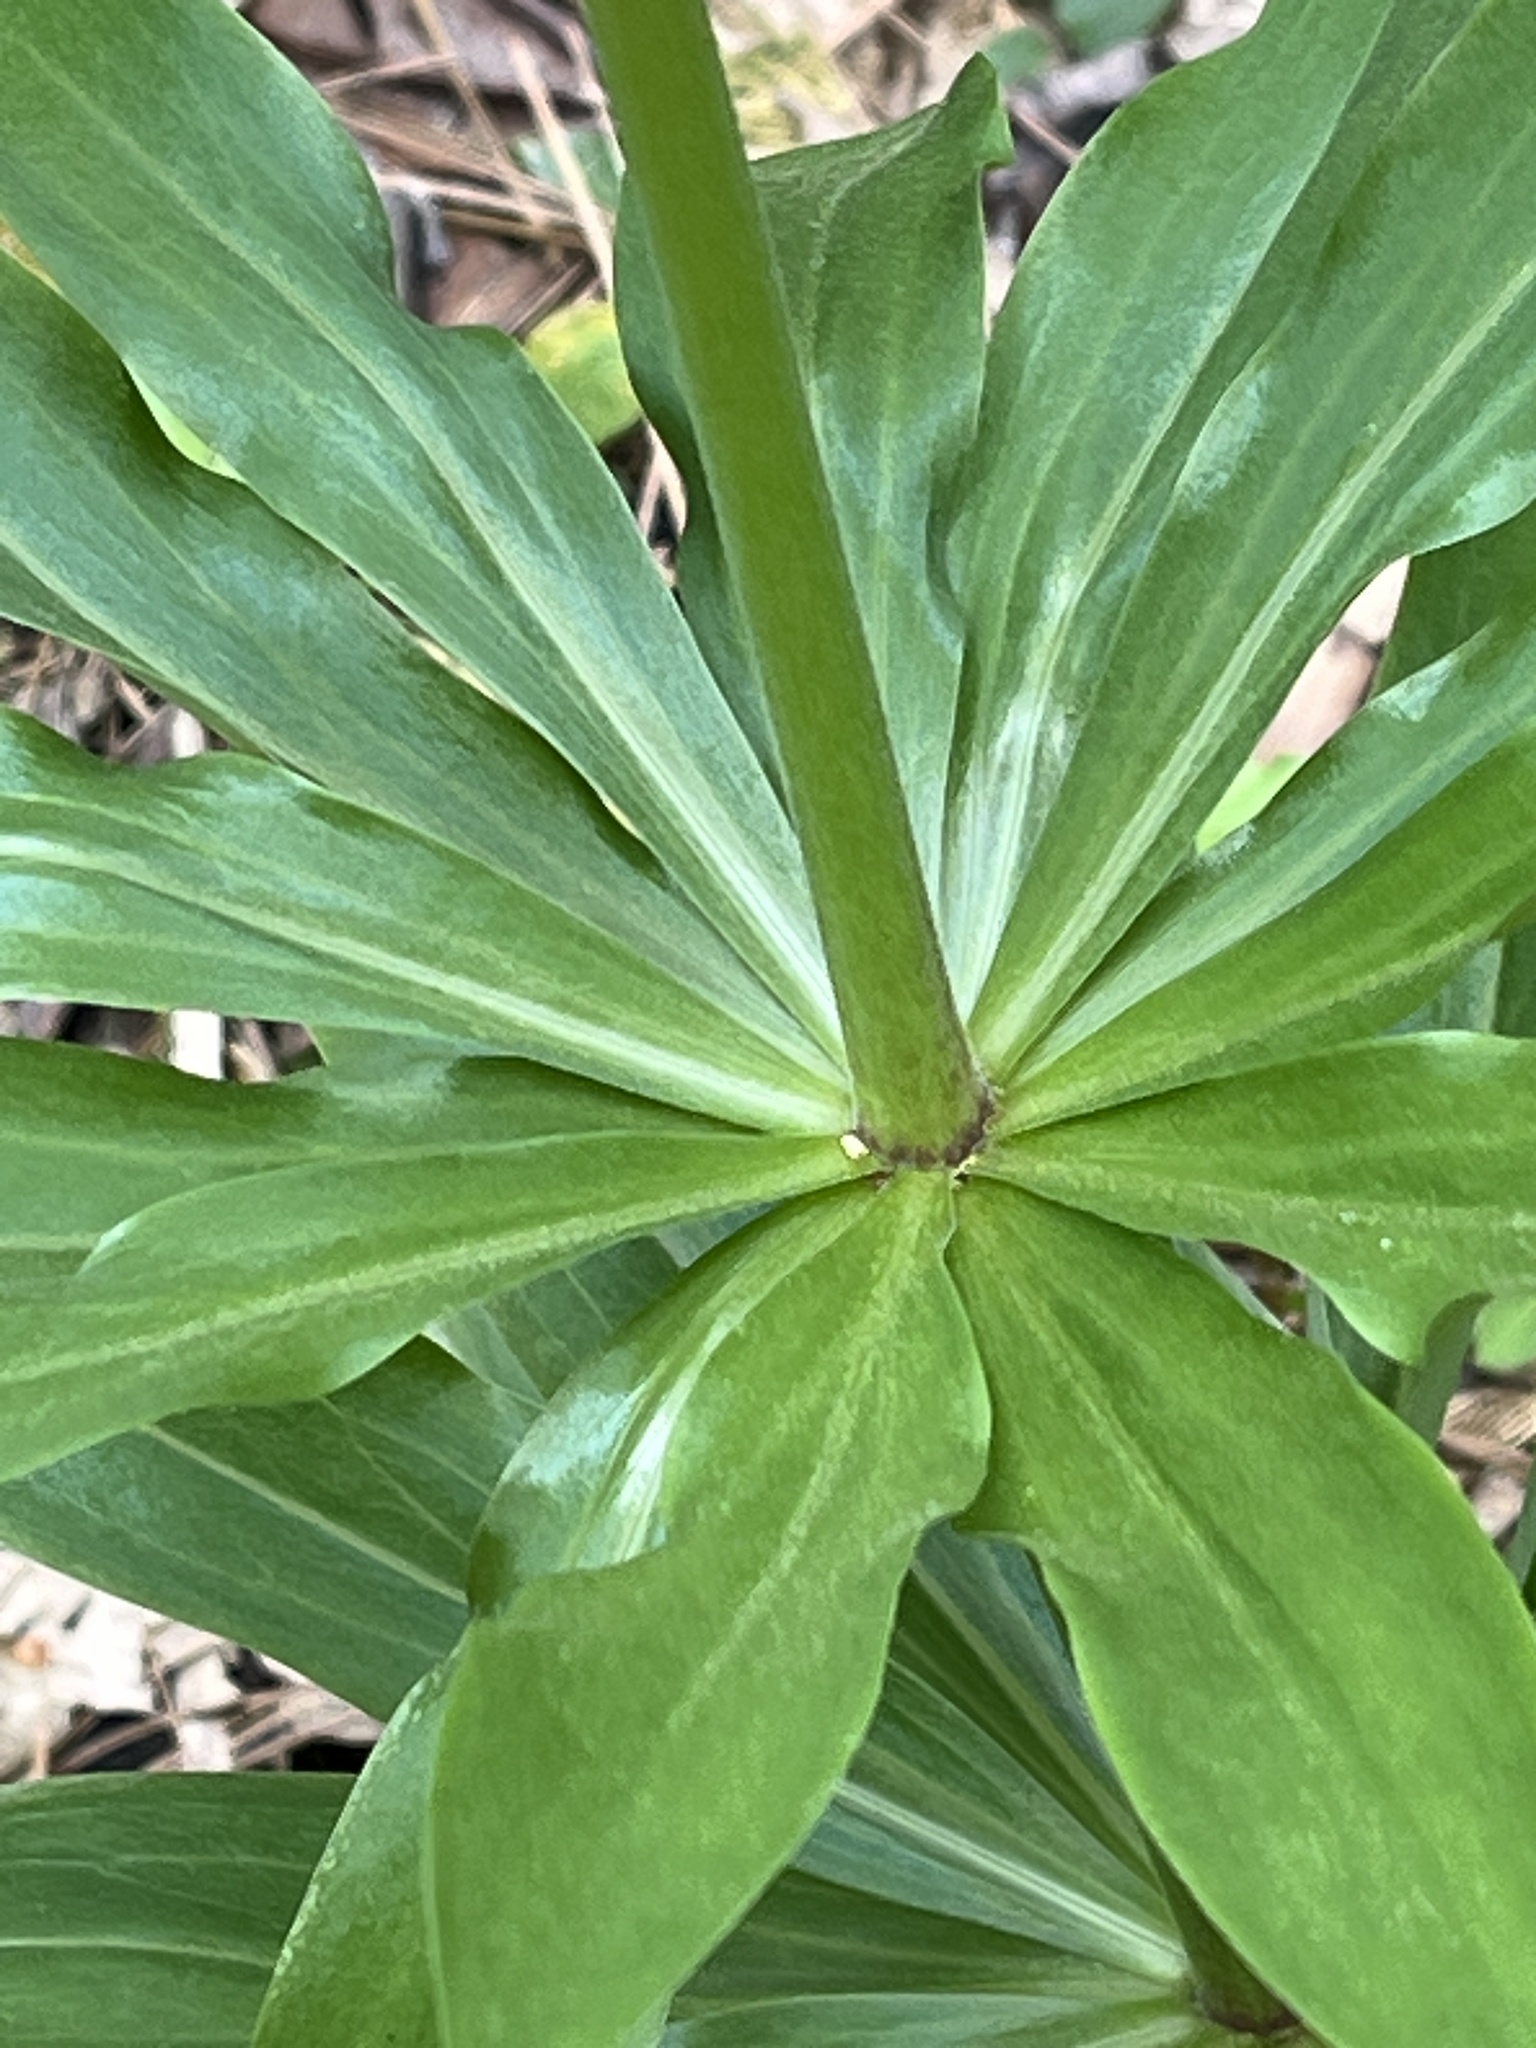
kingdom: Plantae
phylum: Tracheophyta
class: Liliopsida
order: Liliales
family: Liliaceae
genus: Lilium
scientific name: Lilium humboldtii
